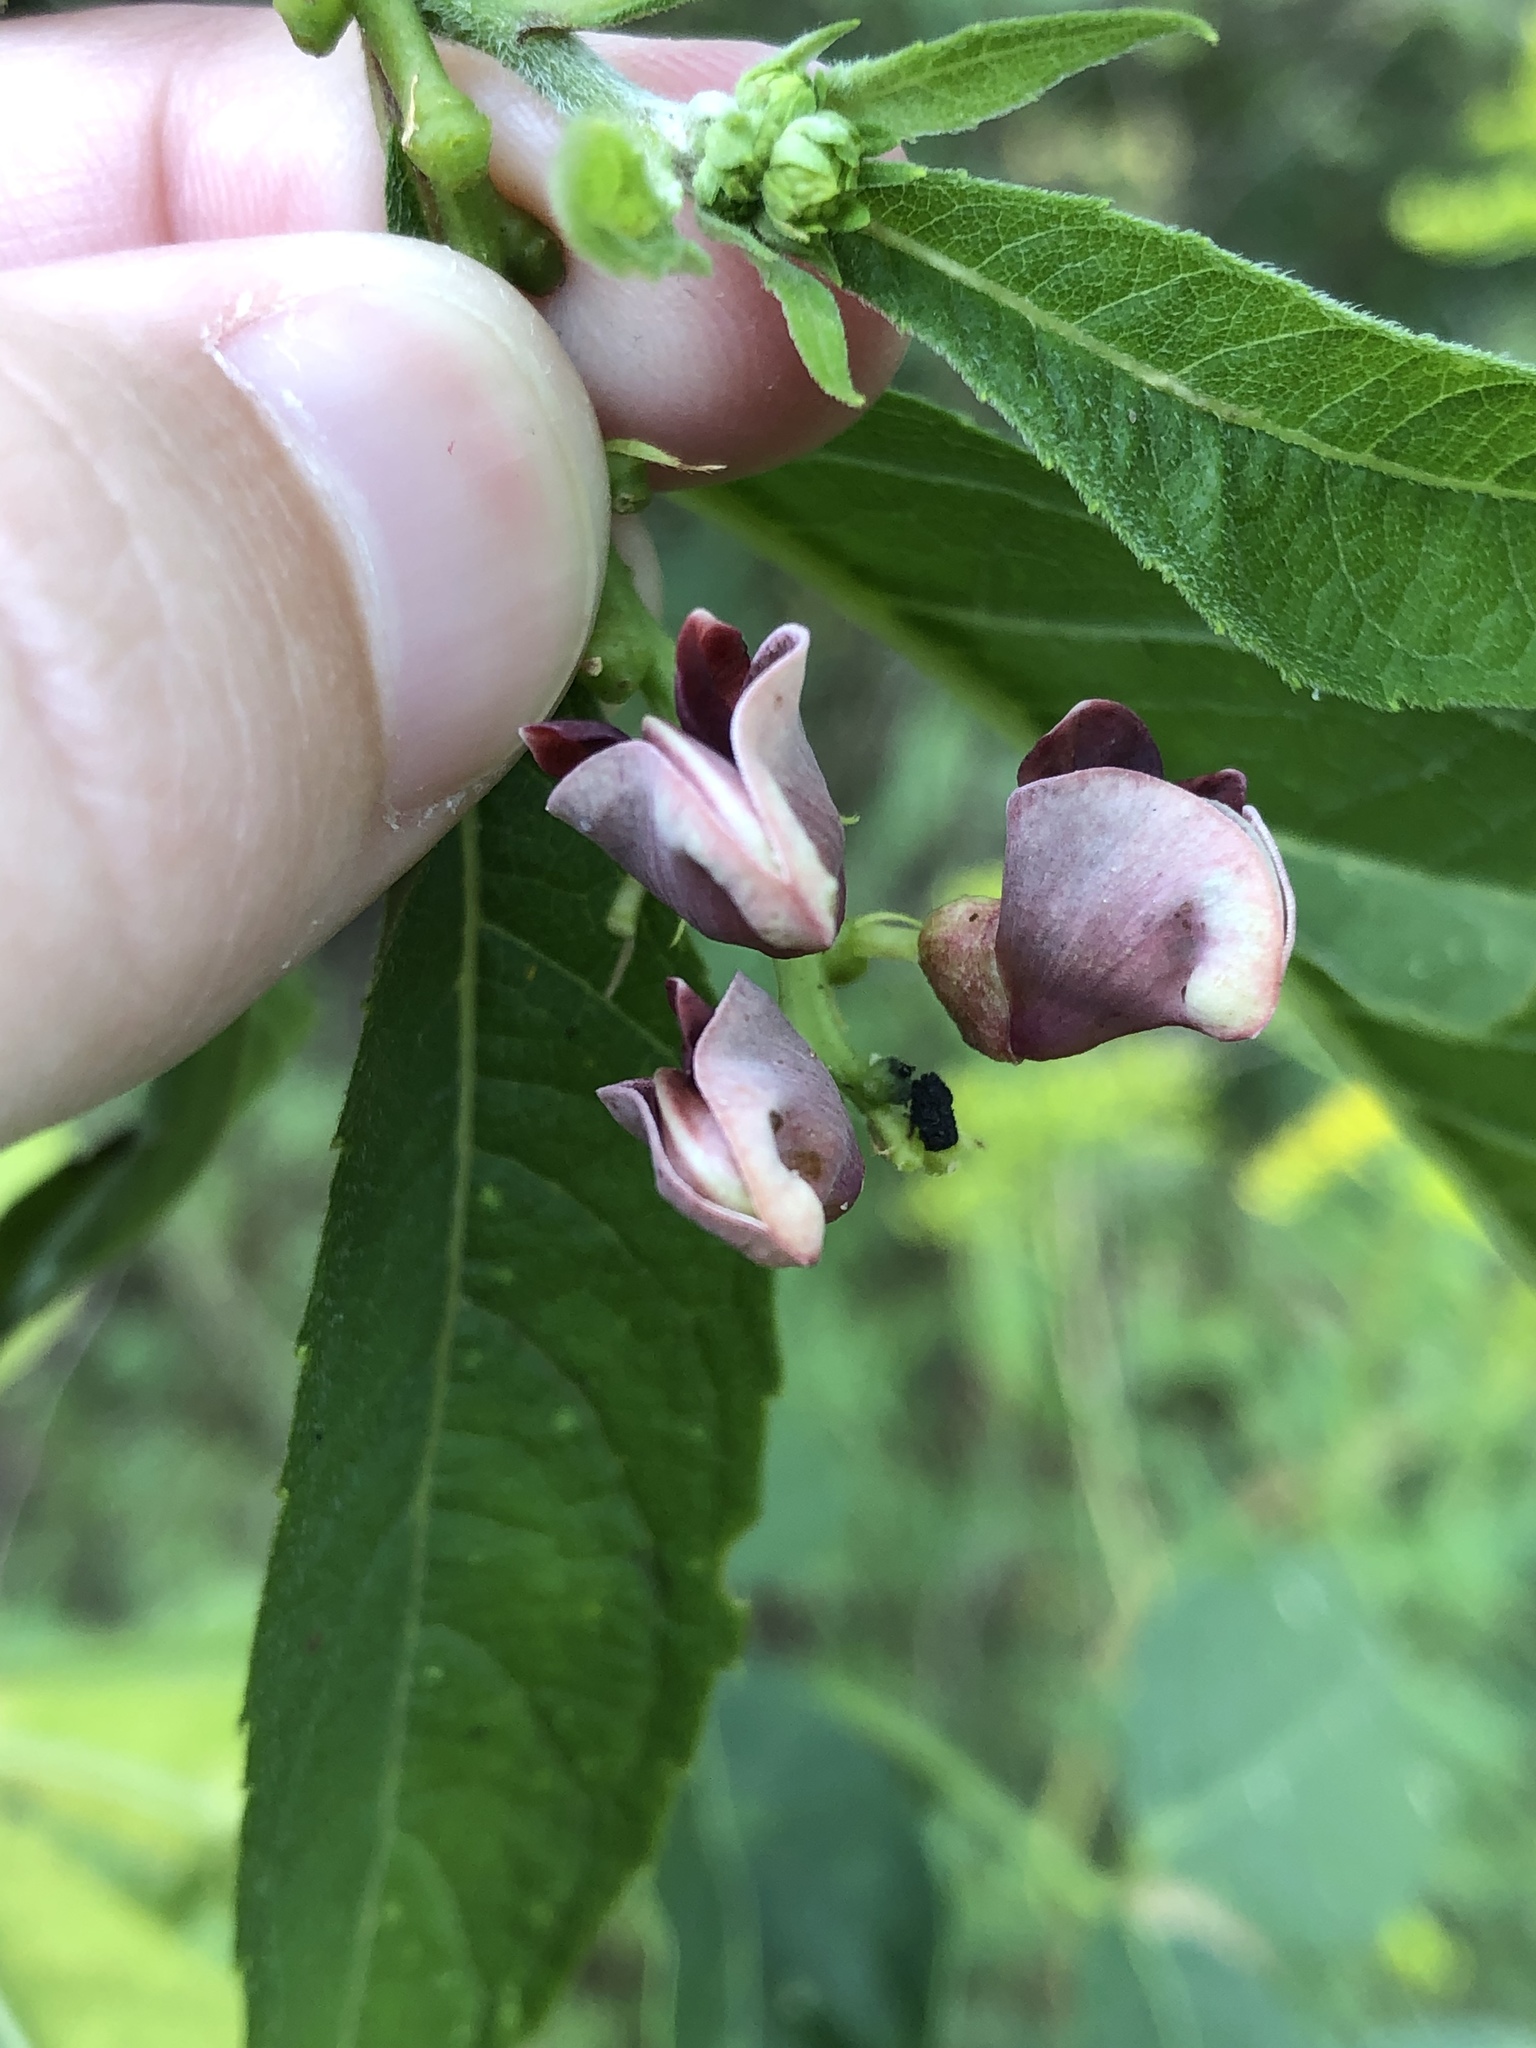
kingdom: Plantae
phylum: Tracheophyta
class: Magnoliopsida
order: Fabales
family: Fabaceae
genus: Apios
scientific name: Apios americana
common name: American potato-bean
